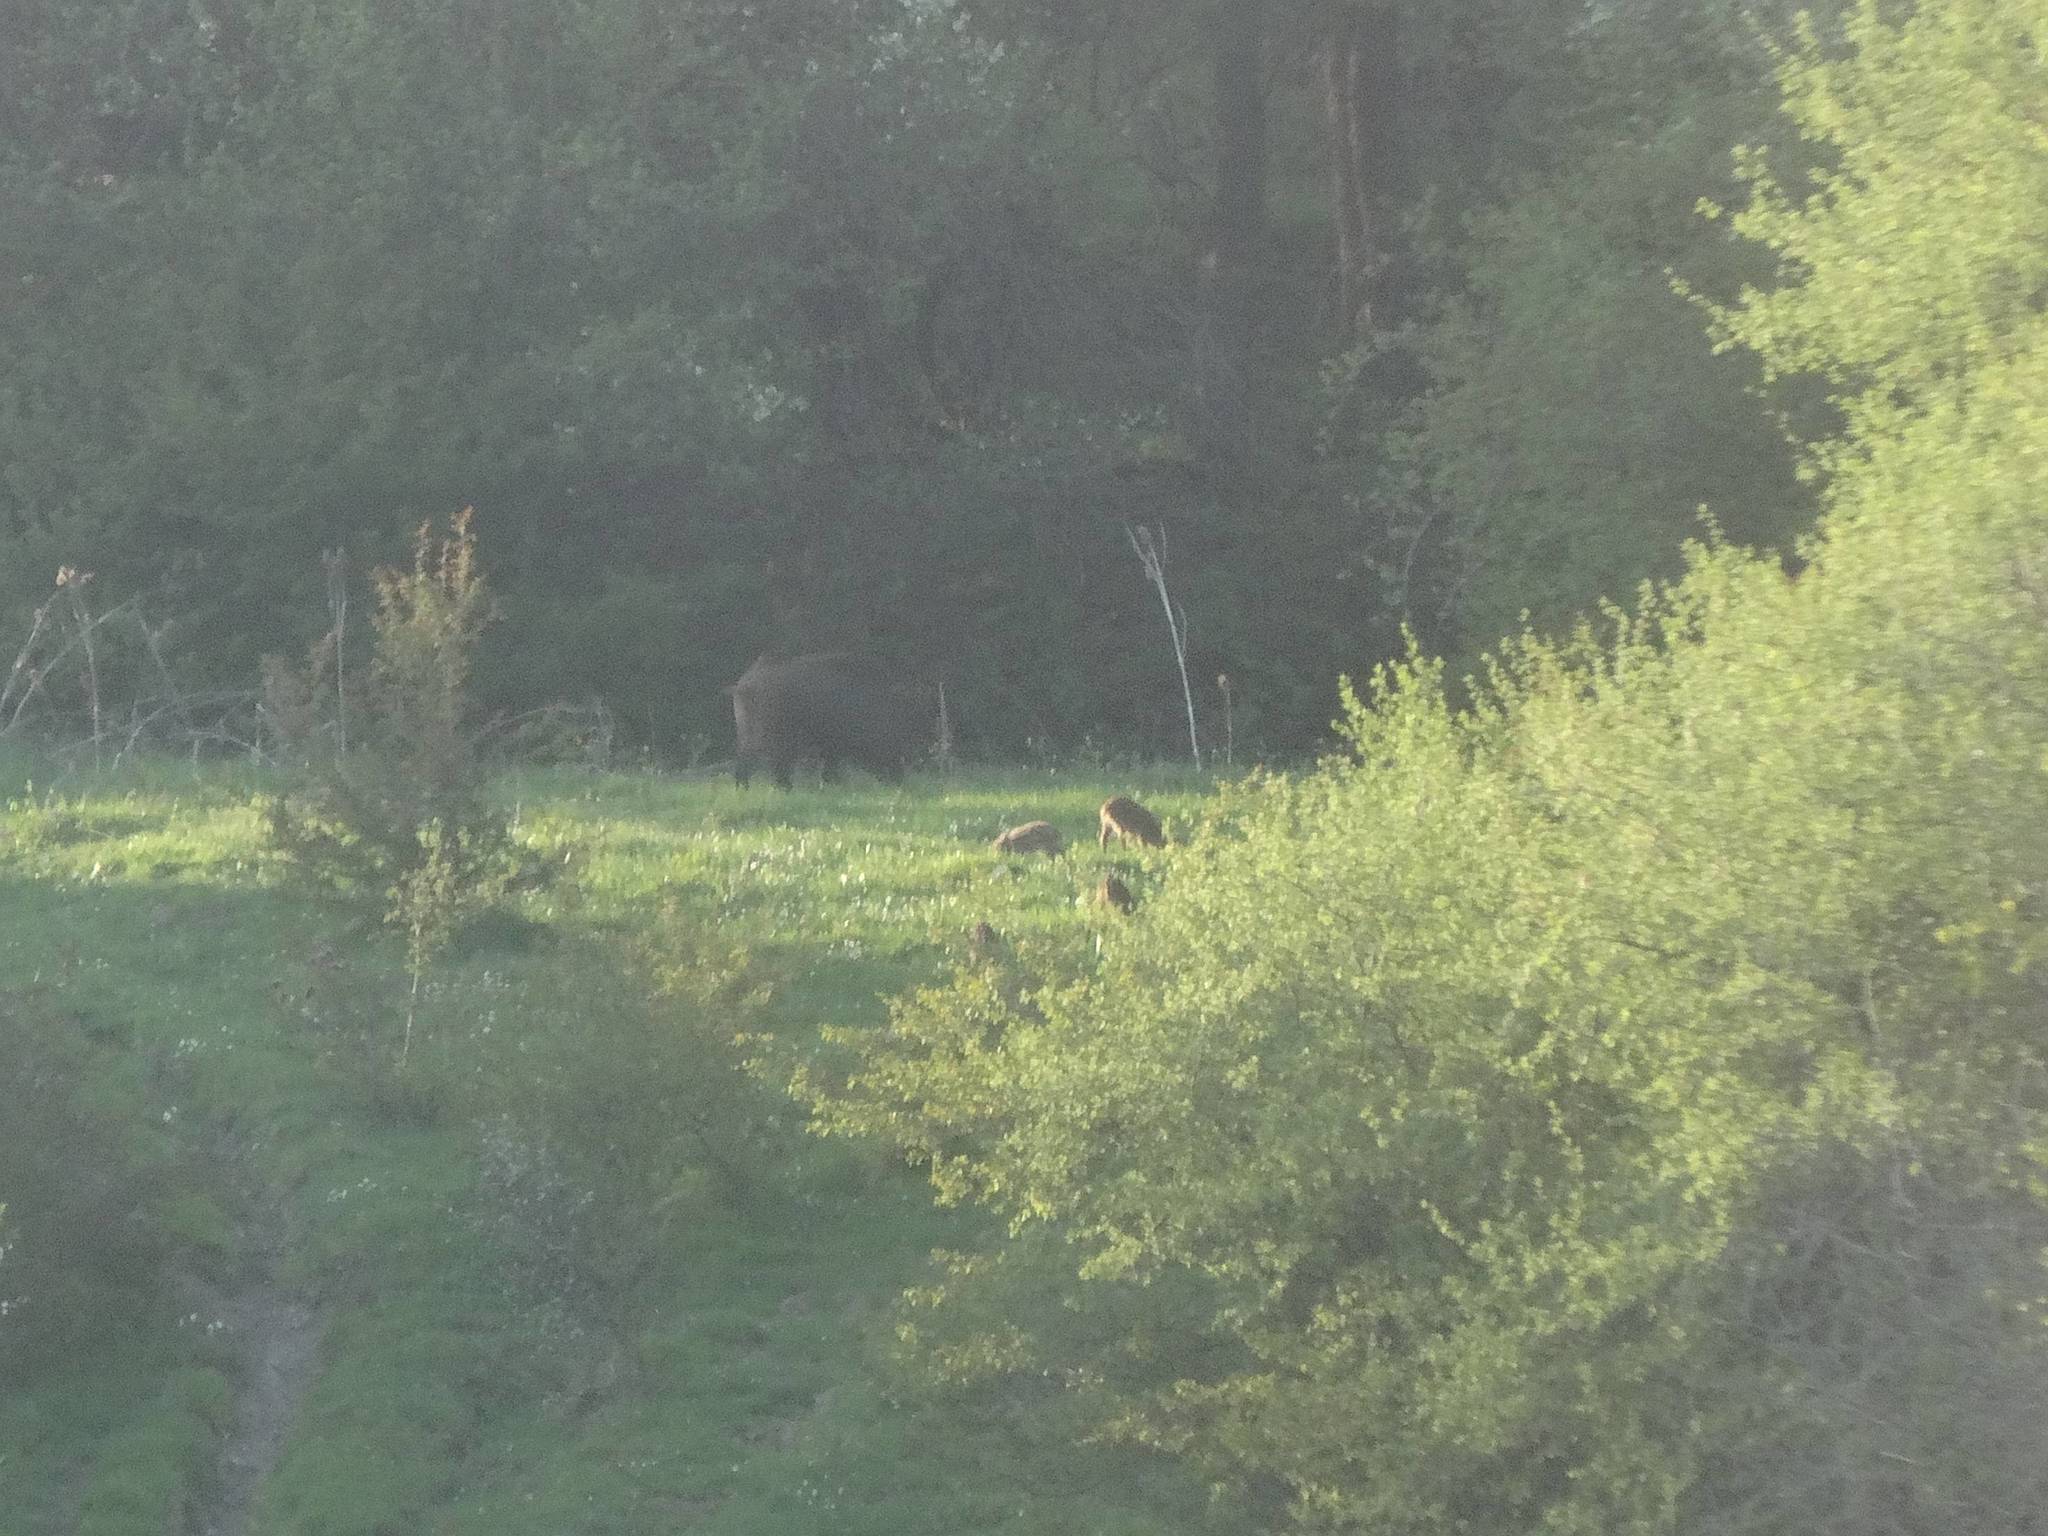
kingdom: Animalia
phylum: Chordata
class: Mammalia
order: Artiodactyla
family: Suidae
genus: Sus
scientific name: Sus scrofa
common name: Wild boar
